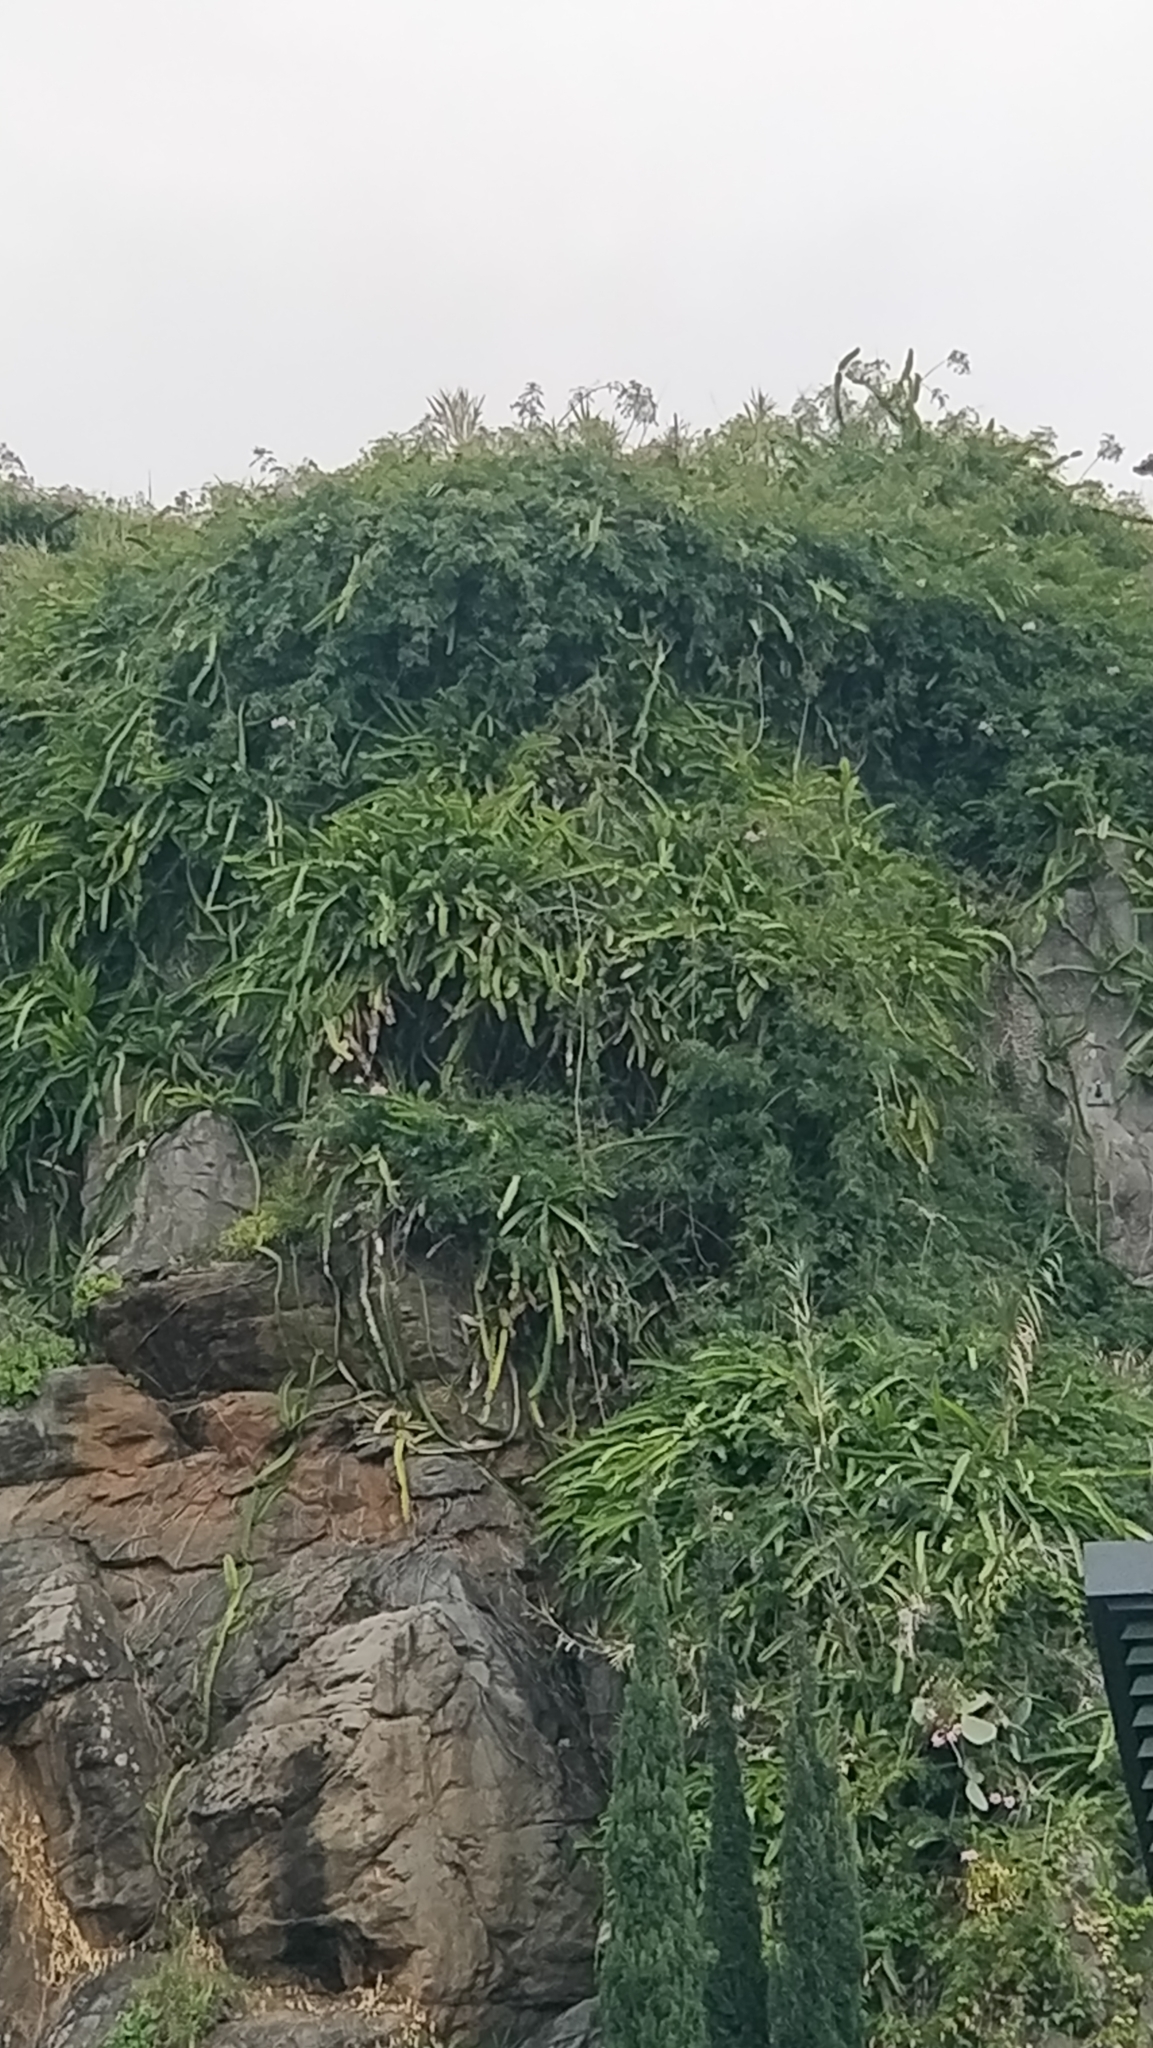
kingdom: Plantae
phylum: Tracheophyta
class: Magnoliopsida
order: Caryophyllales
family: Cactaceae
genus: Selenicereus
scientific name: Selenicereus undatus
